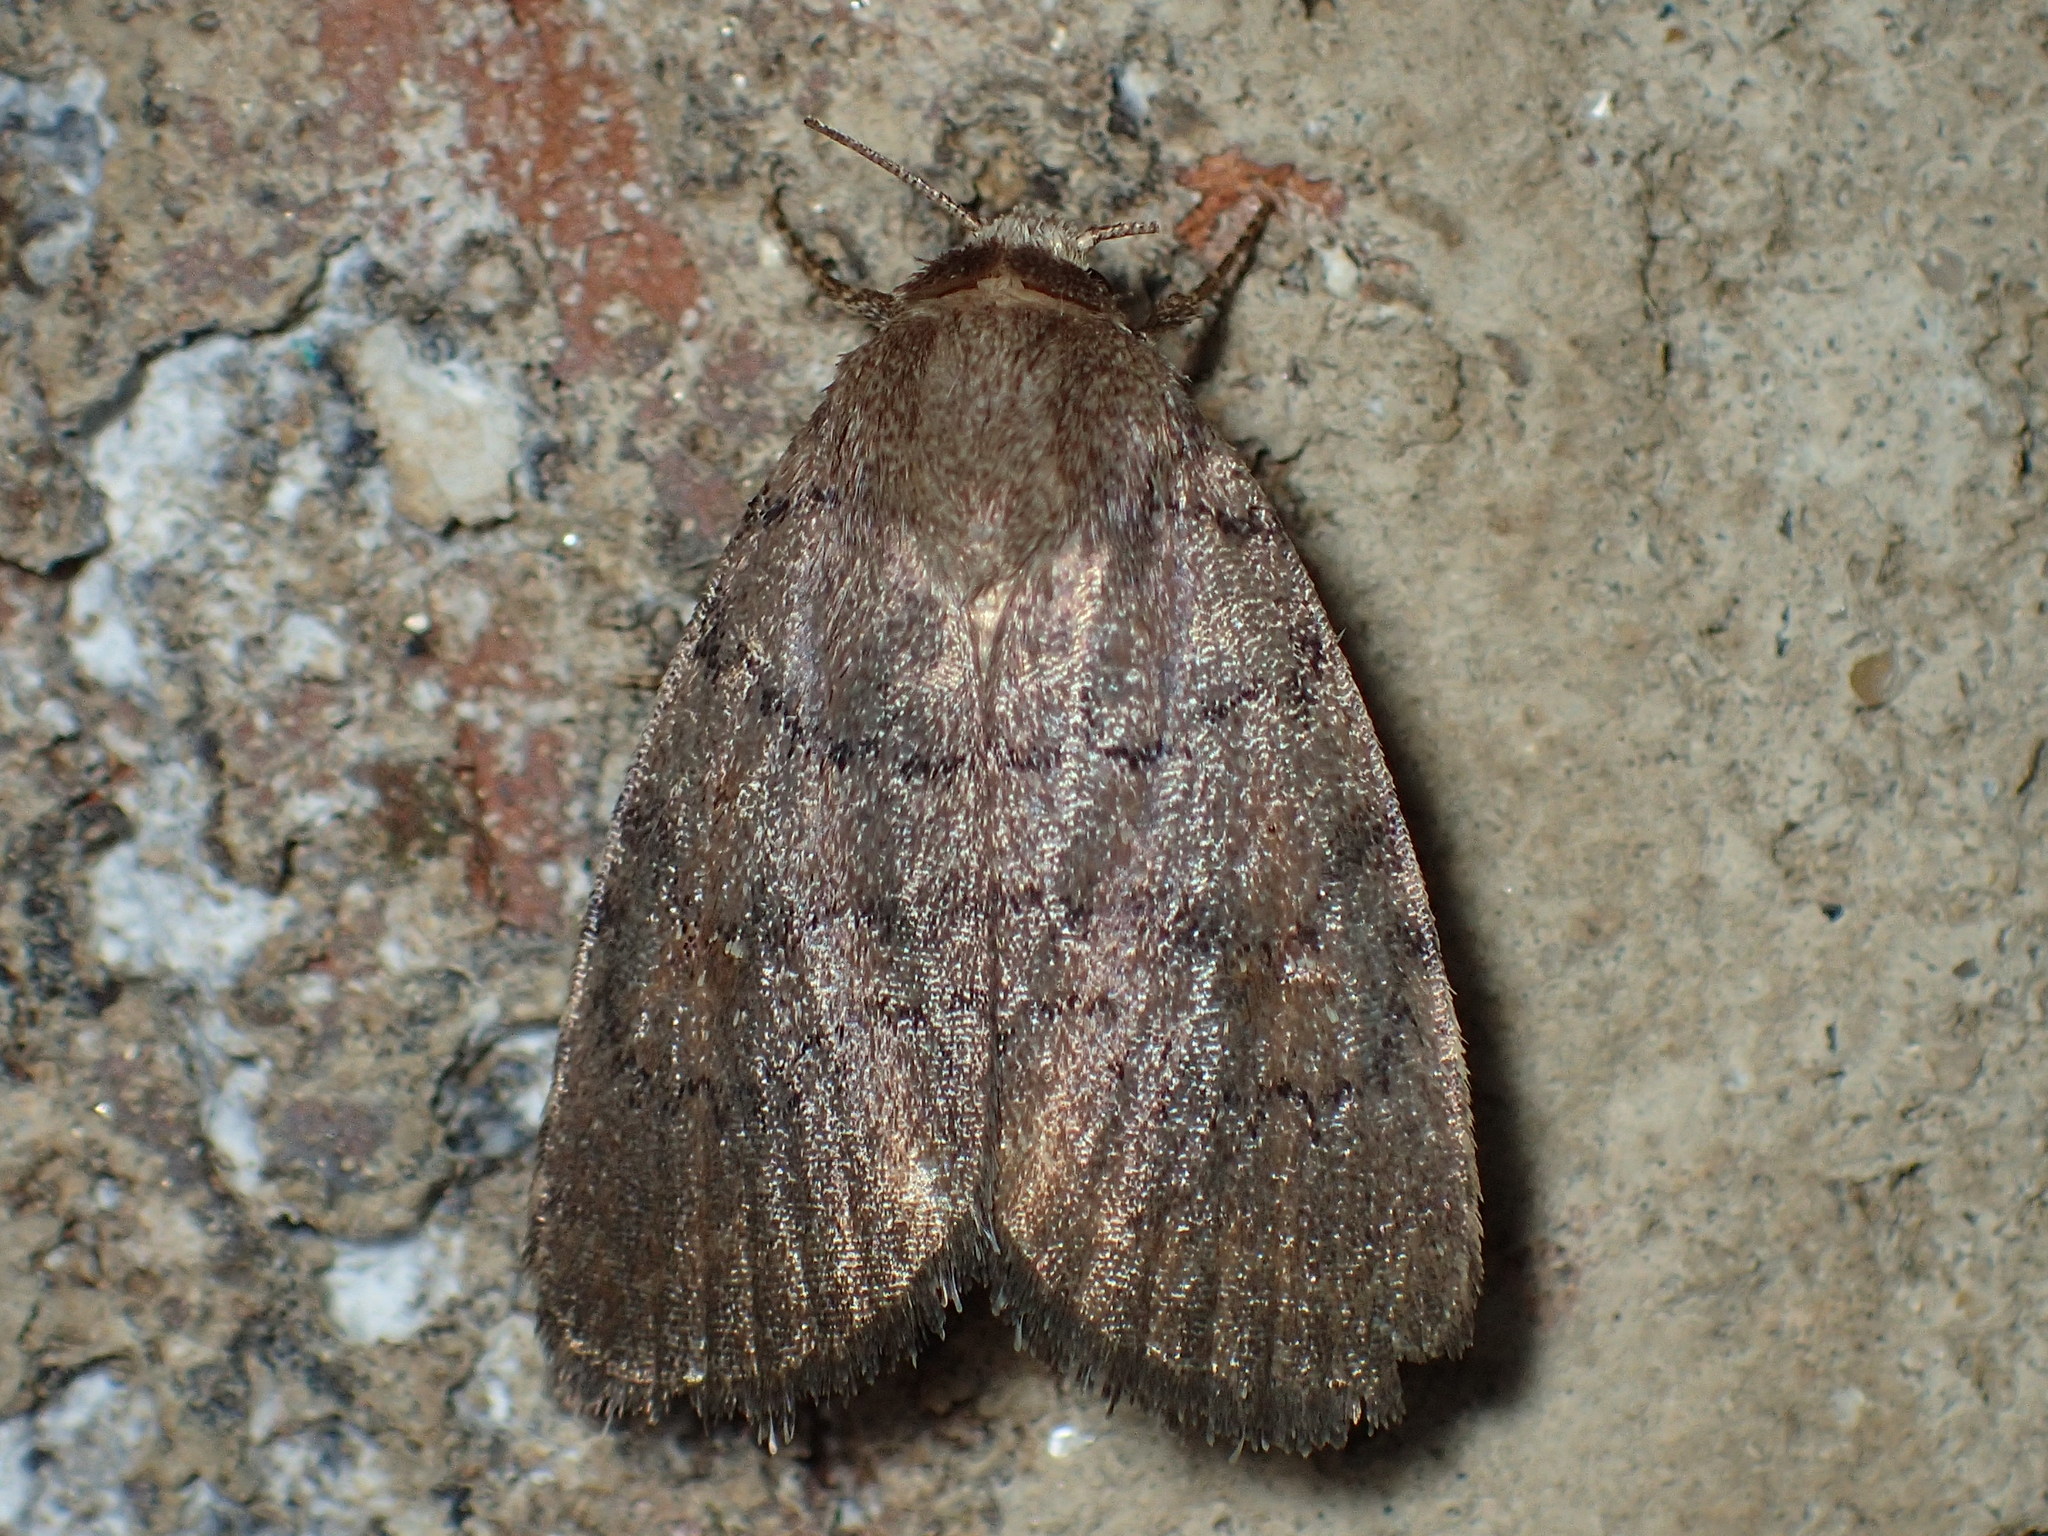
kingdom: Animalia
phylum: Arthropoda
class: Insecta
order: Lepidoptera
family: Noctuidae
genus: Athetis
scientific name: Athetis tarda
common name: Slowpoke moth
